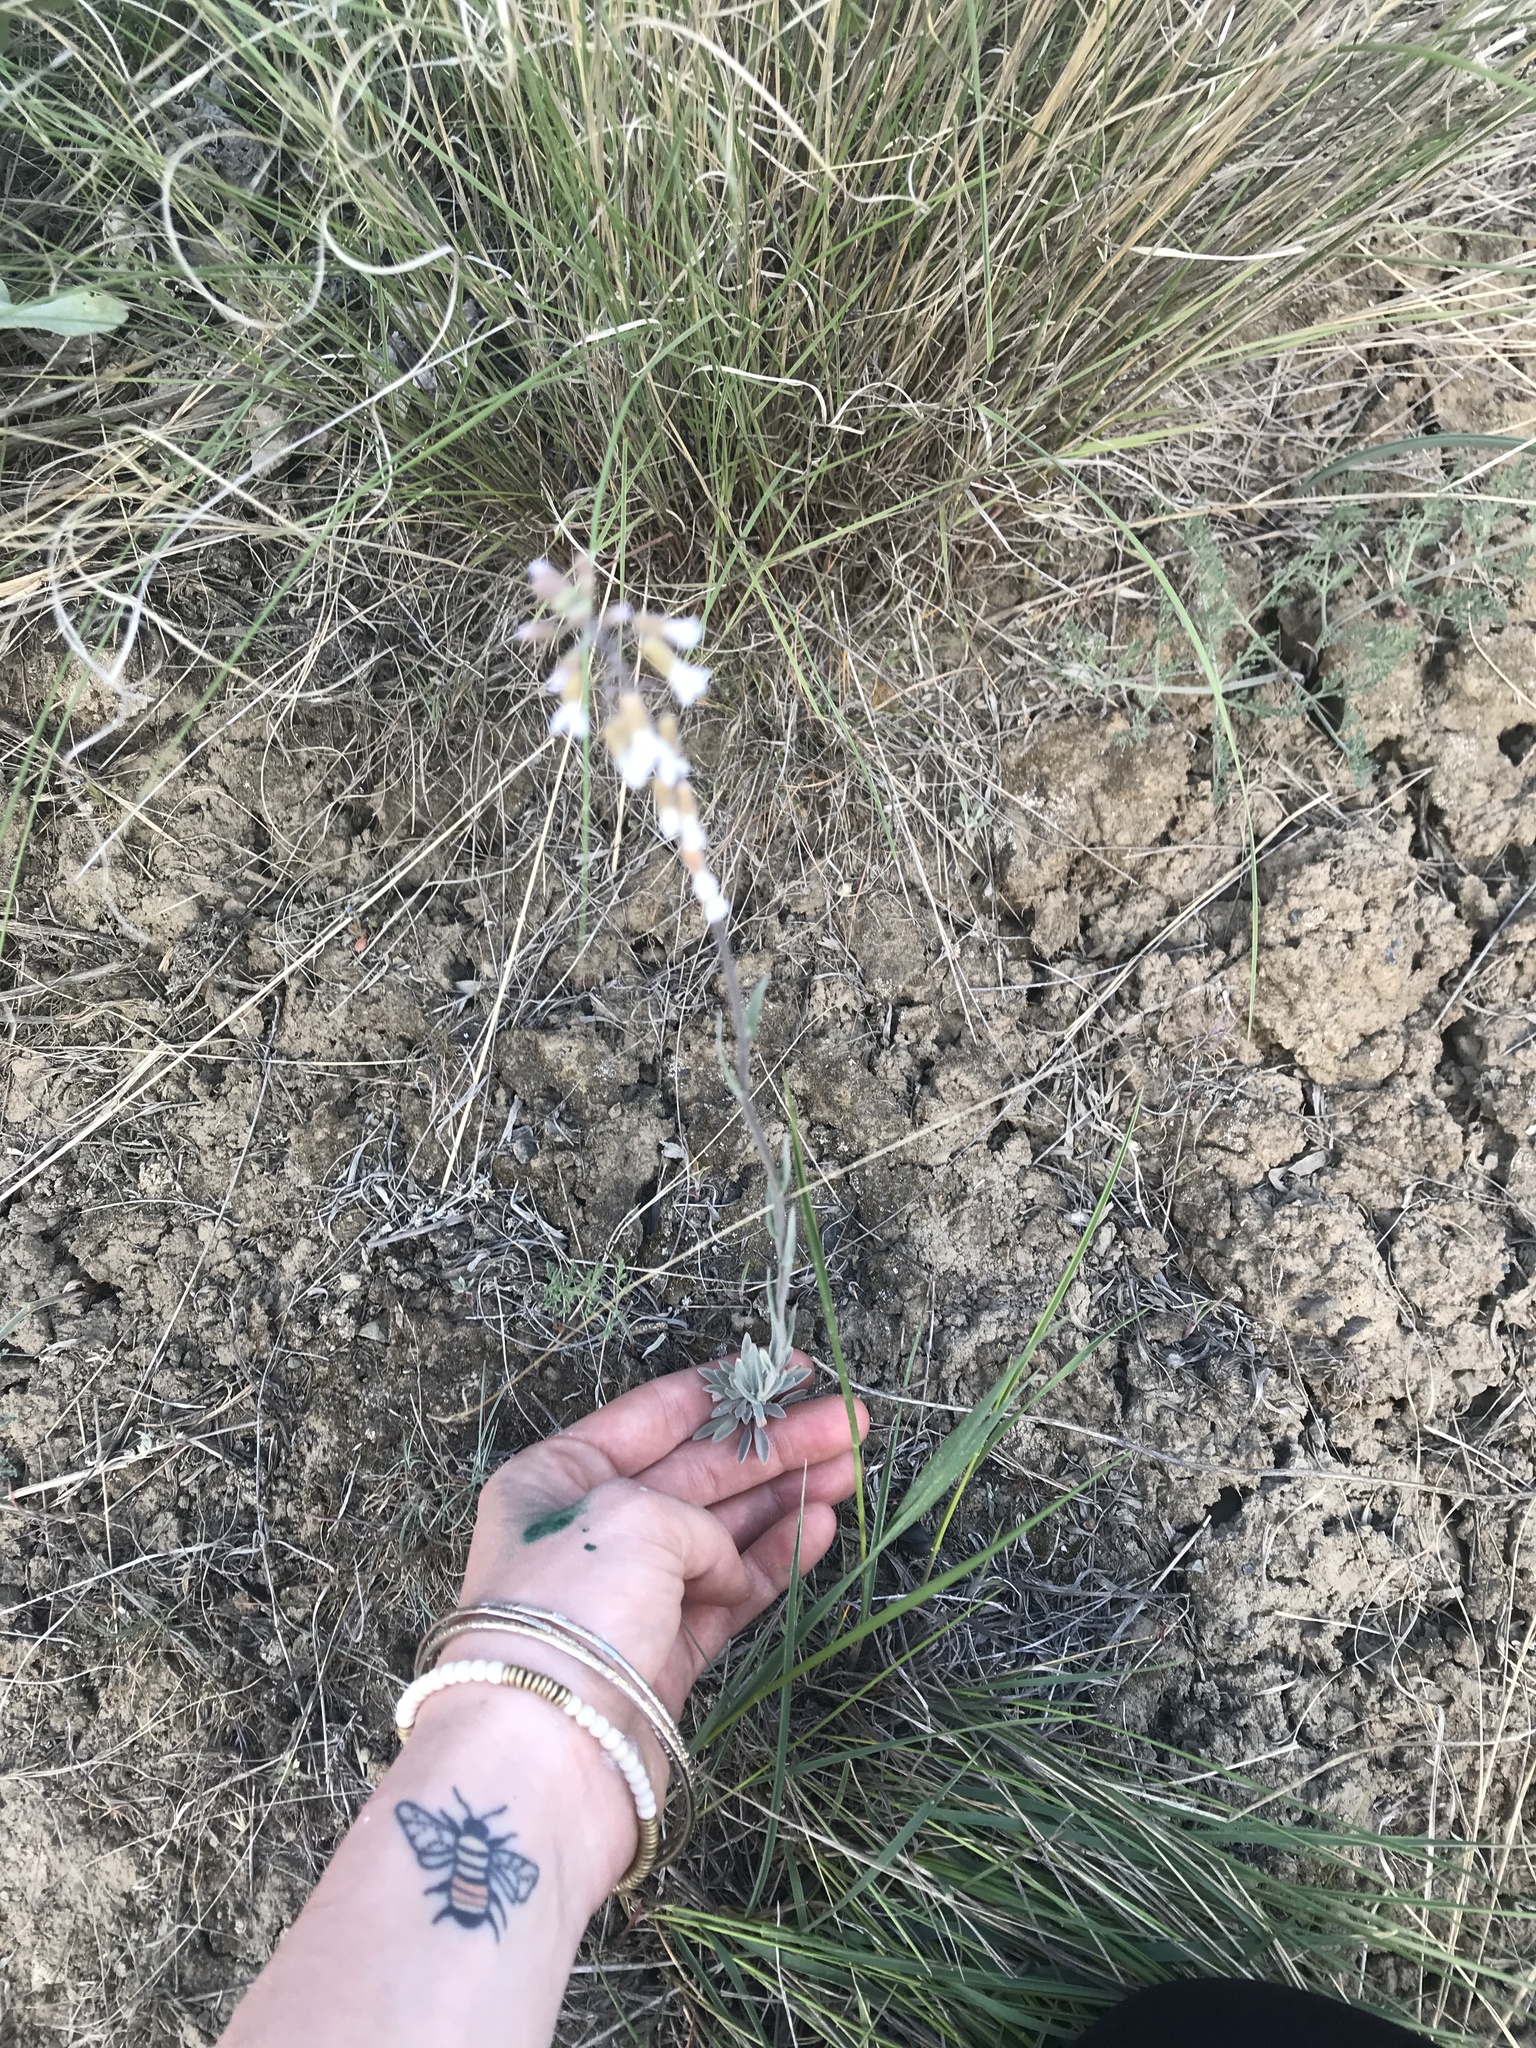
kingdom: Plantae
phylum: Tracheophyta
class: Magnoliopsida
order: Brassicales
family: Brassicaceae
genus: Boechera
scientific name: Boechera retrofracta
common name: Dangling suncress
